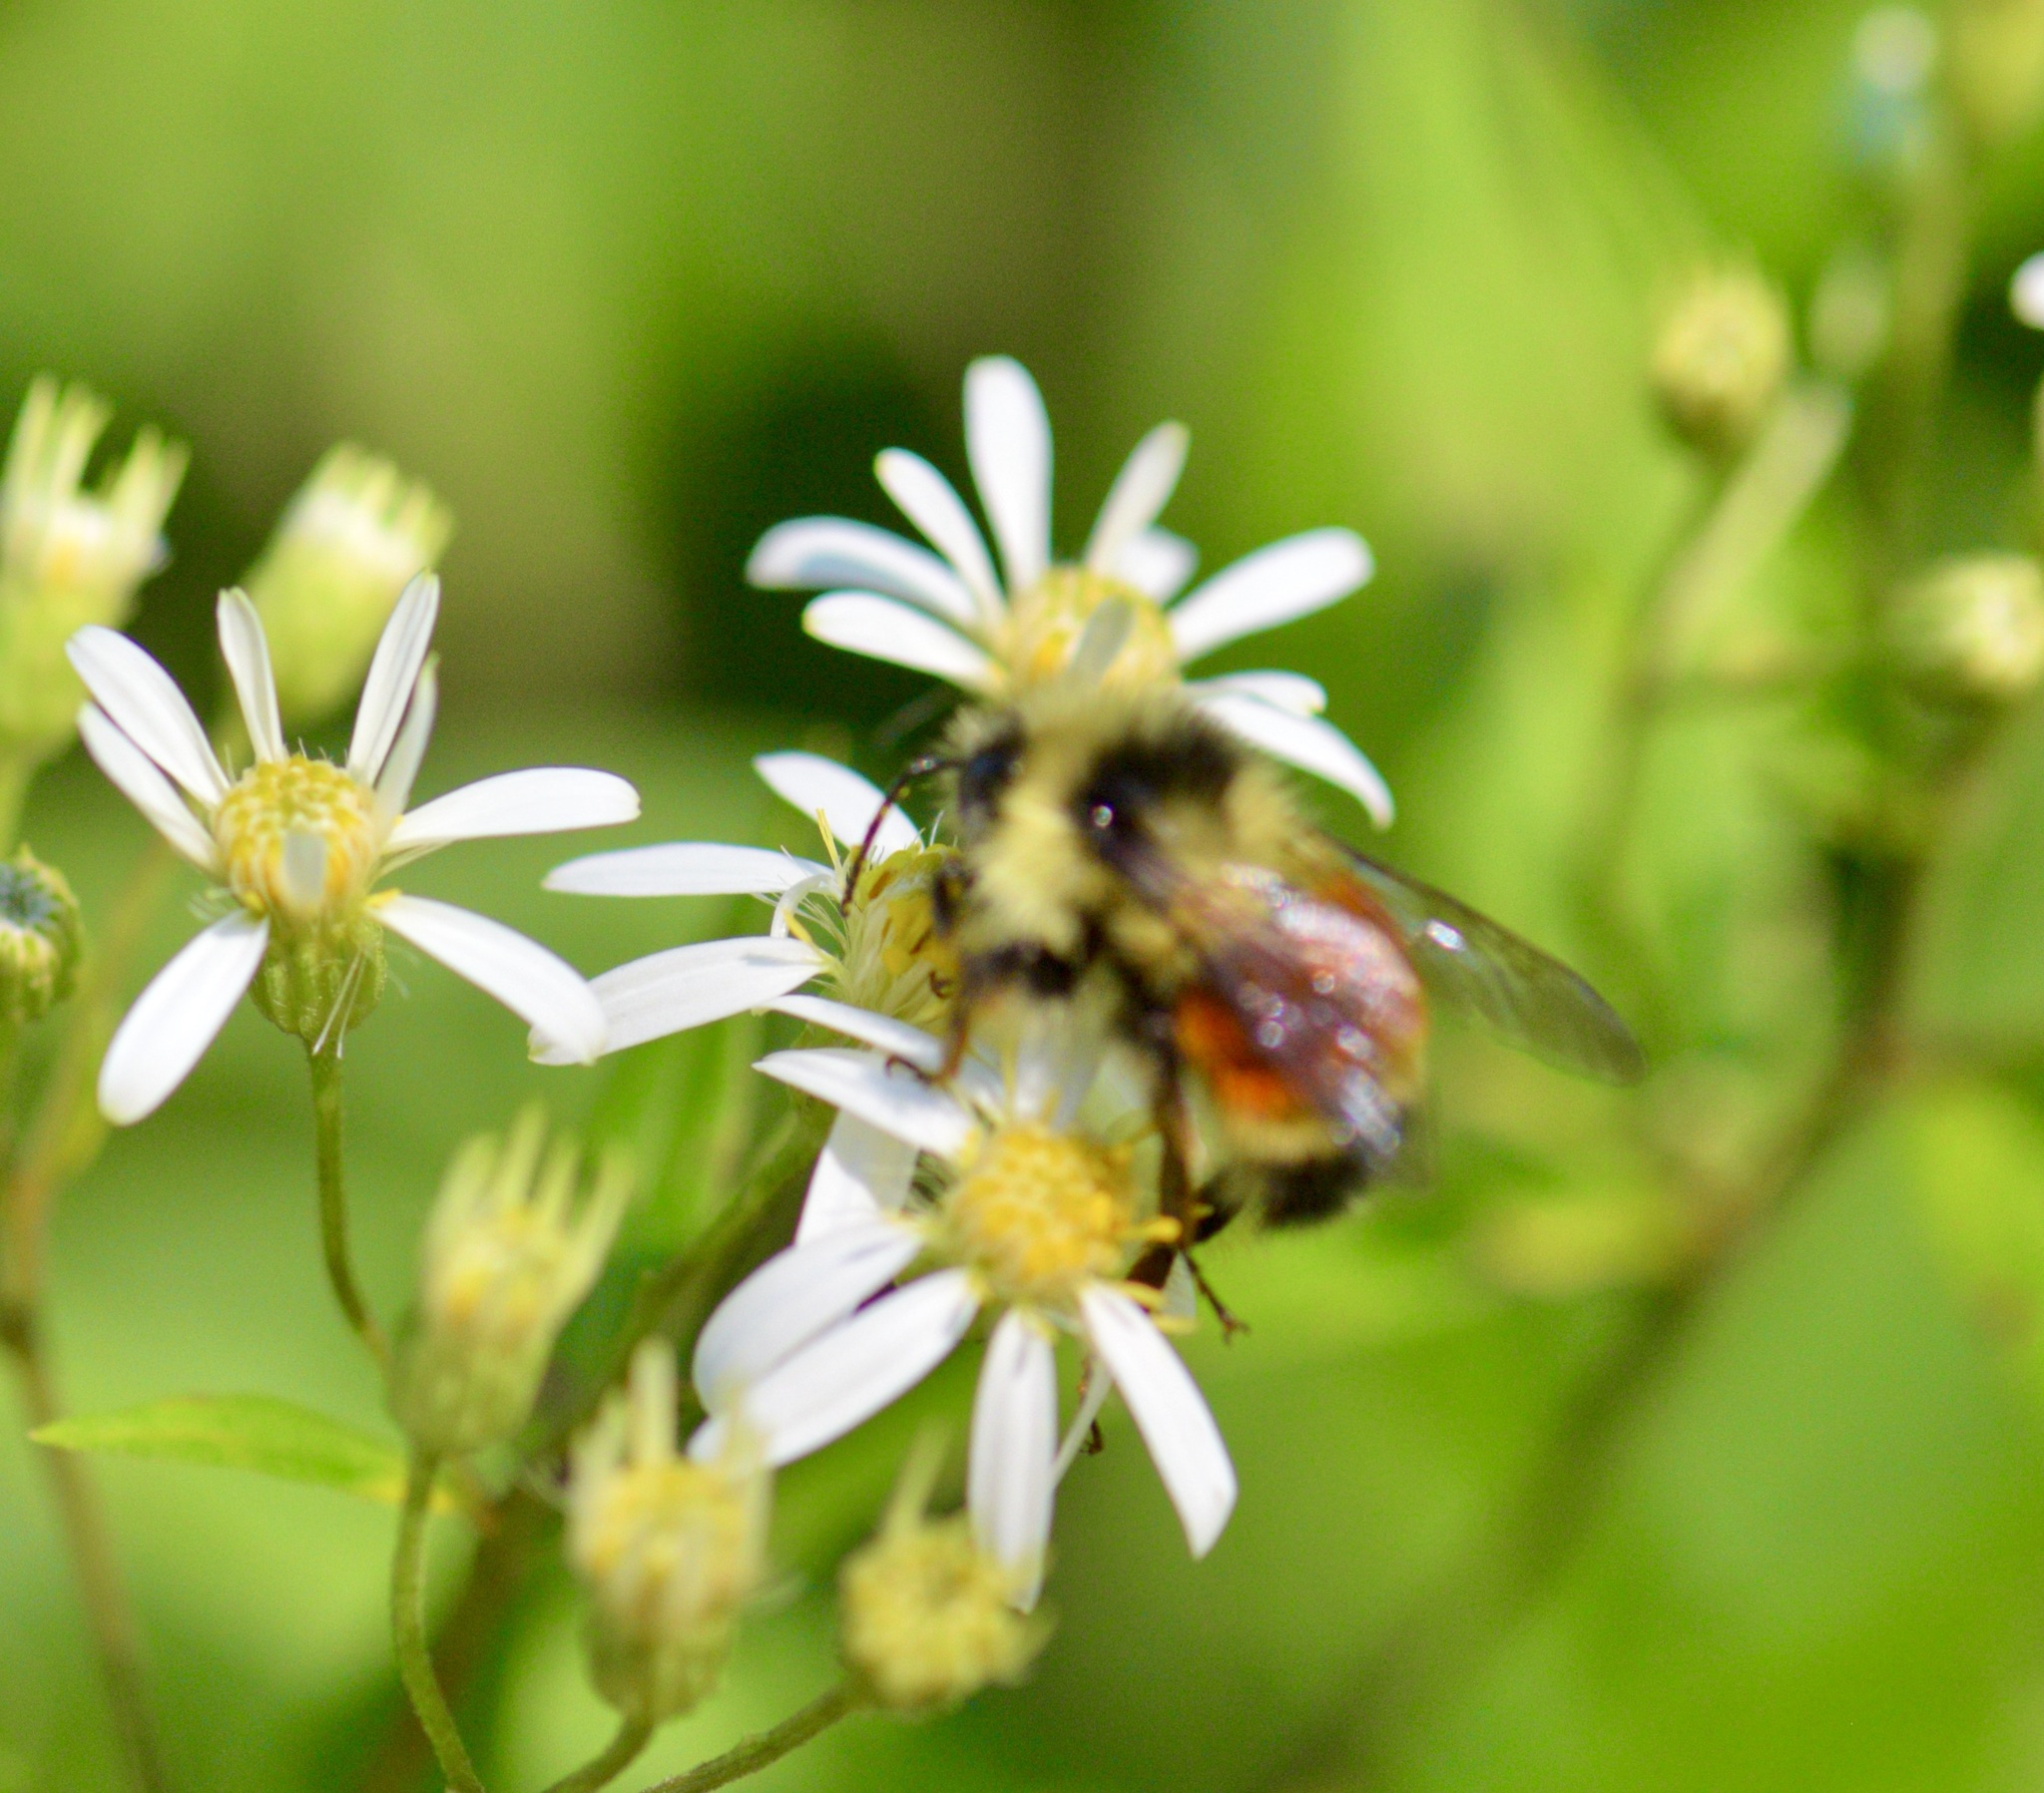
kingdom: Animalia
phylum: Arthropoda
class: Insecta
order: Hymenoptera
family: Apidae
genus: Bombus
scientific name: Bombus ternarius
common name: Tri-colored bumble bee
